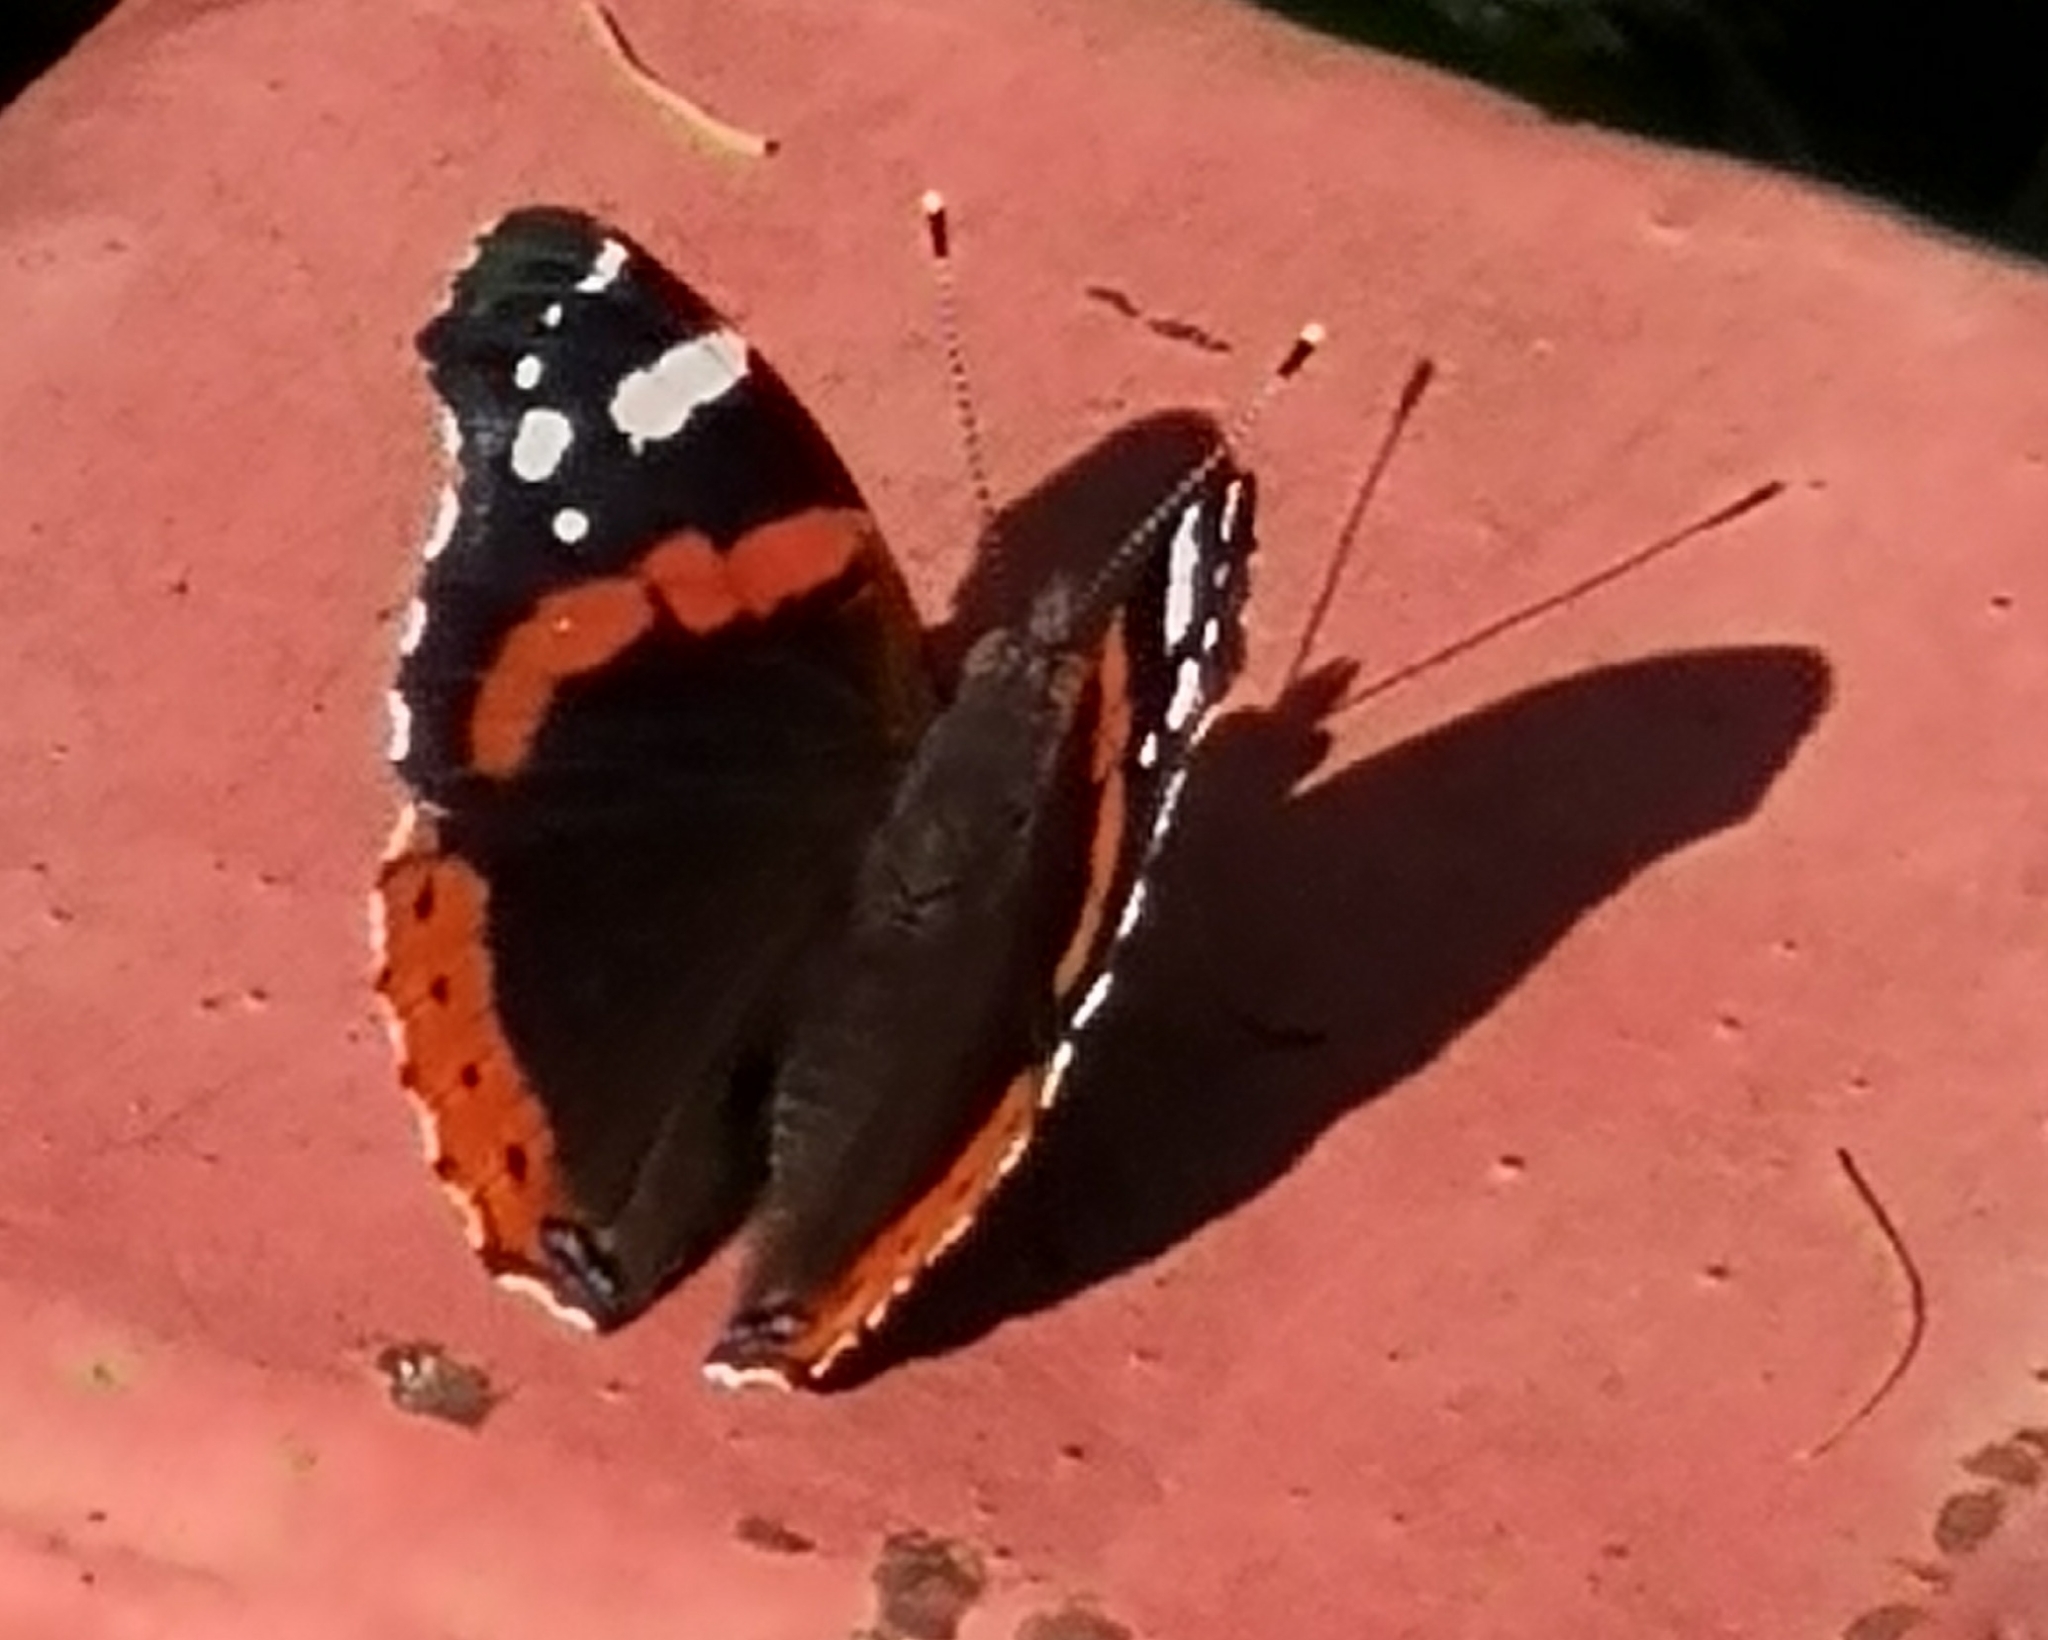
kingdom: Animalia
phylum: Arthropoda
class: Insecta
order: Lepidoptera
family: Nymphalidae
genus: Vanessa
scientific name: Vanessa atalanta
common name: Red admiral
